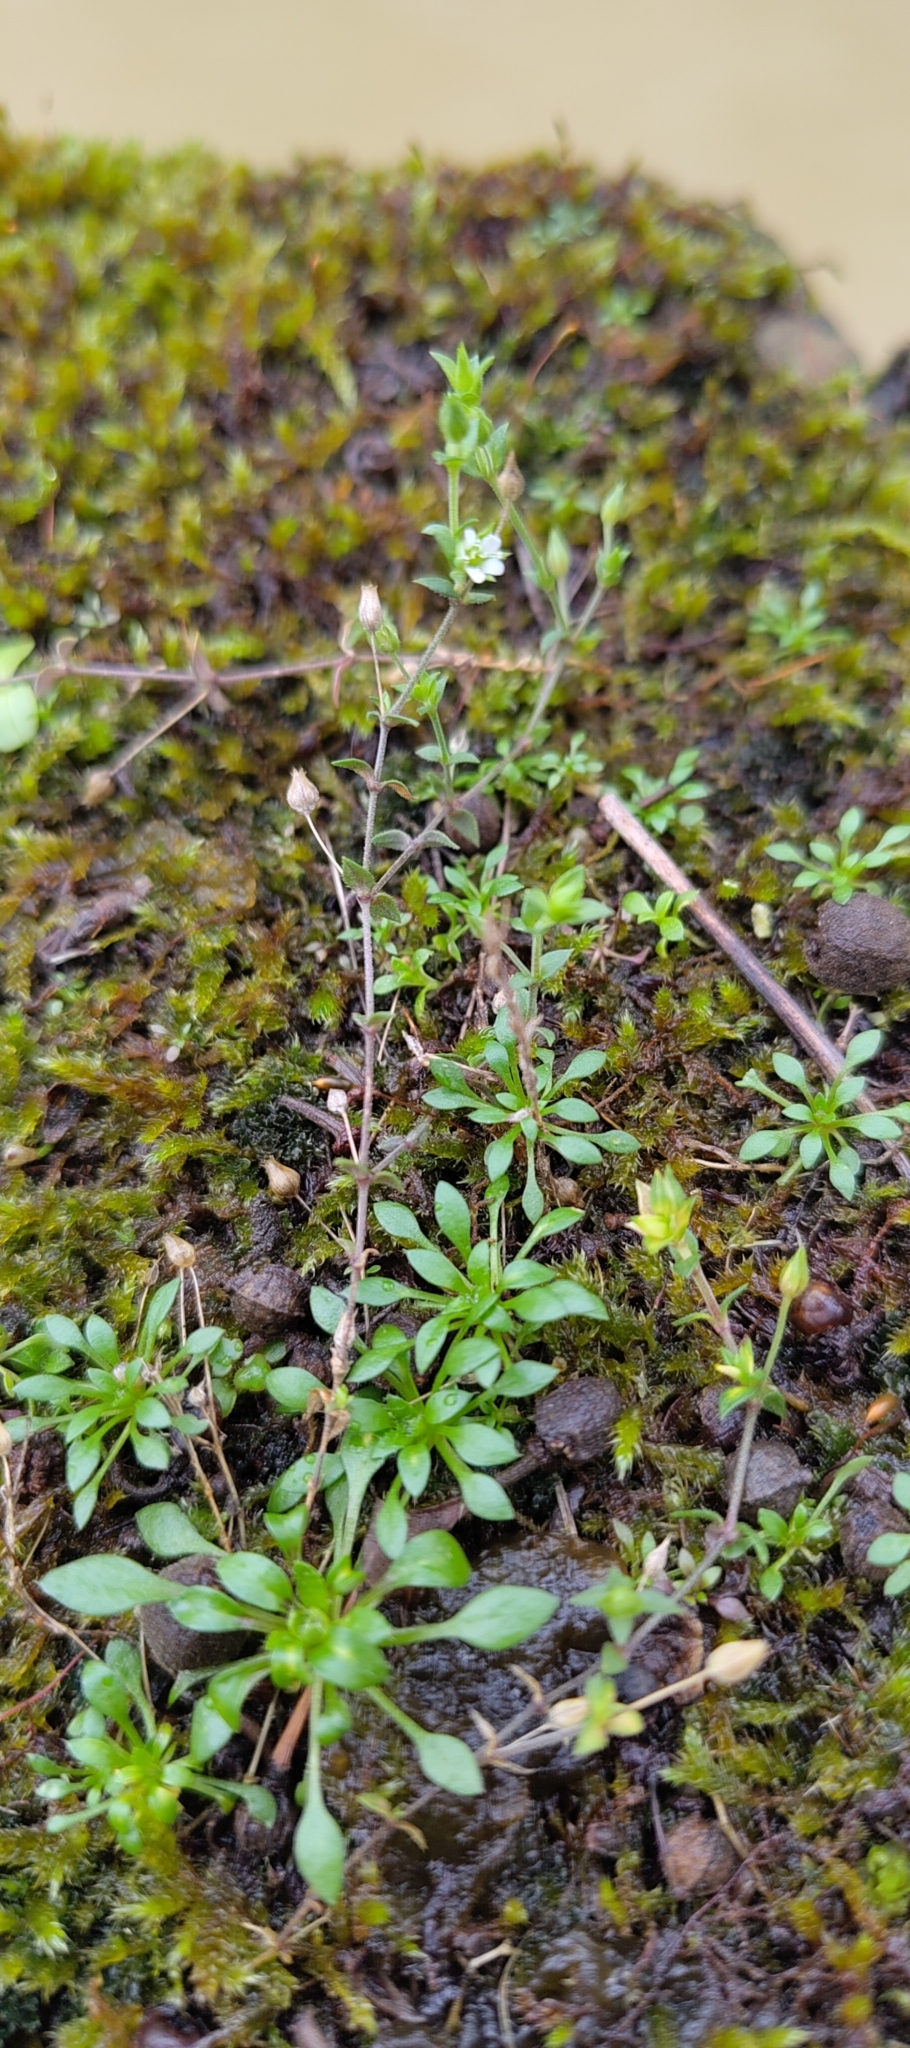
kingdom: Plantae
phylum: Tracheophyta
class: Magnoliopsida
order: Caryophyllales
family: Caryophyllaceae
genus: Arenaria
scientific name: Arenaria serpyllifolia
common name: Thyme-leaved sandwort
